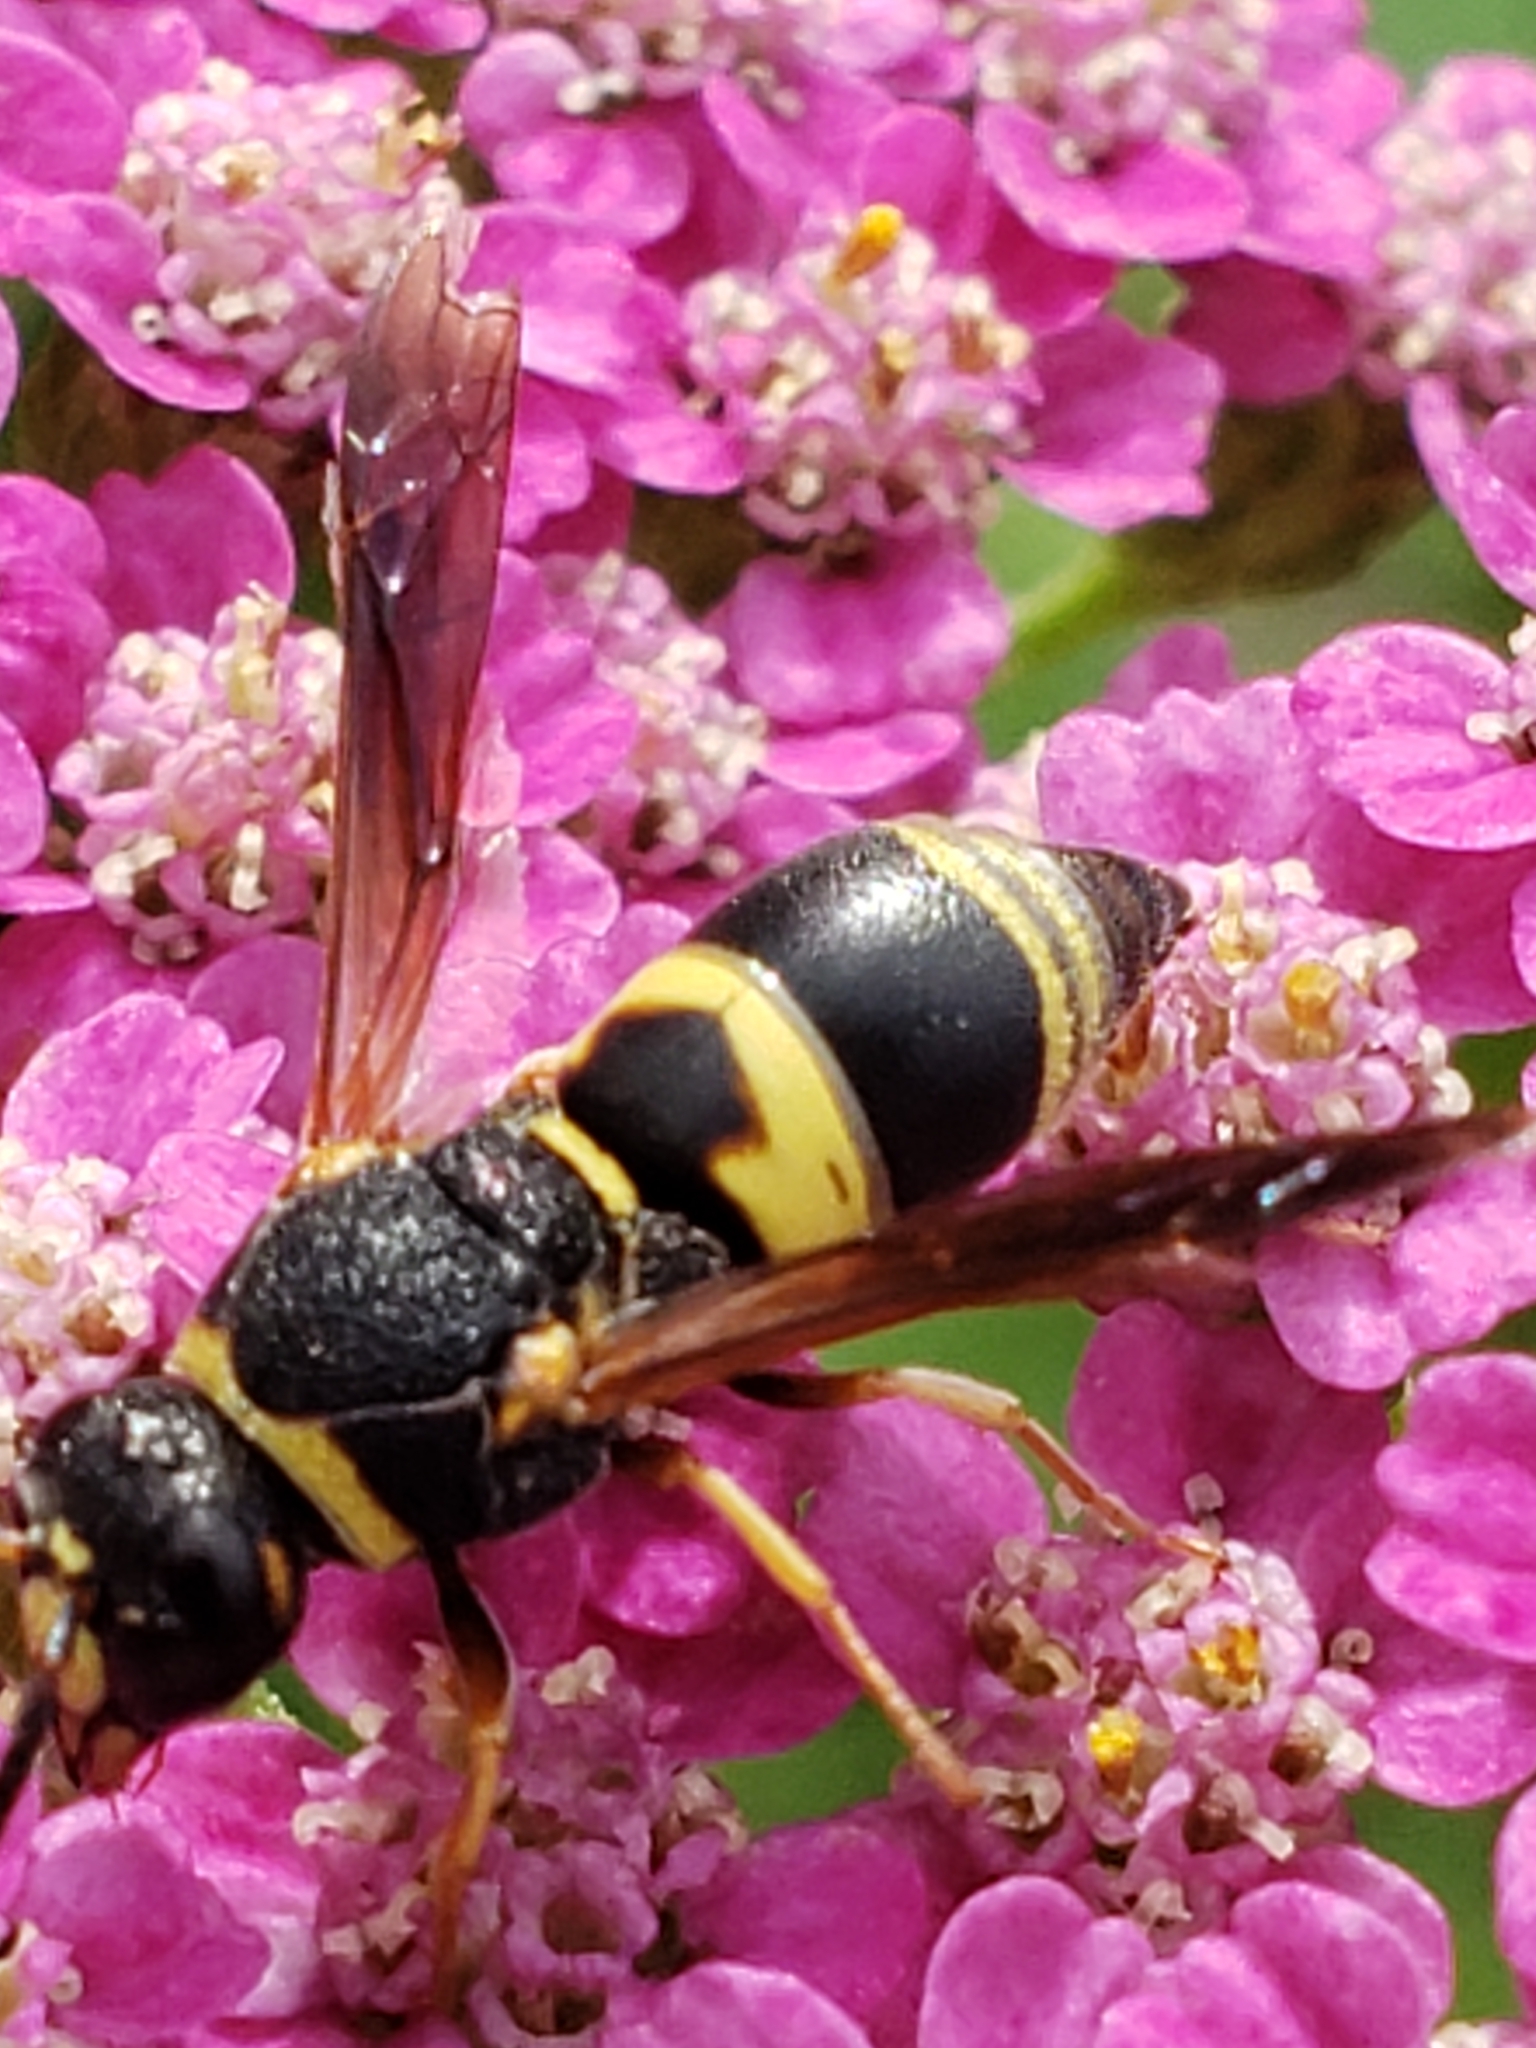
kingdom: Animalia
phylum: Arthropoda
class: Insecta
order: Hymenoptera
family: Eumenidae
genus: Euodynerus
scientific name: Euodynerus hidalgo
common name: Wasp
